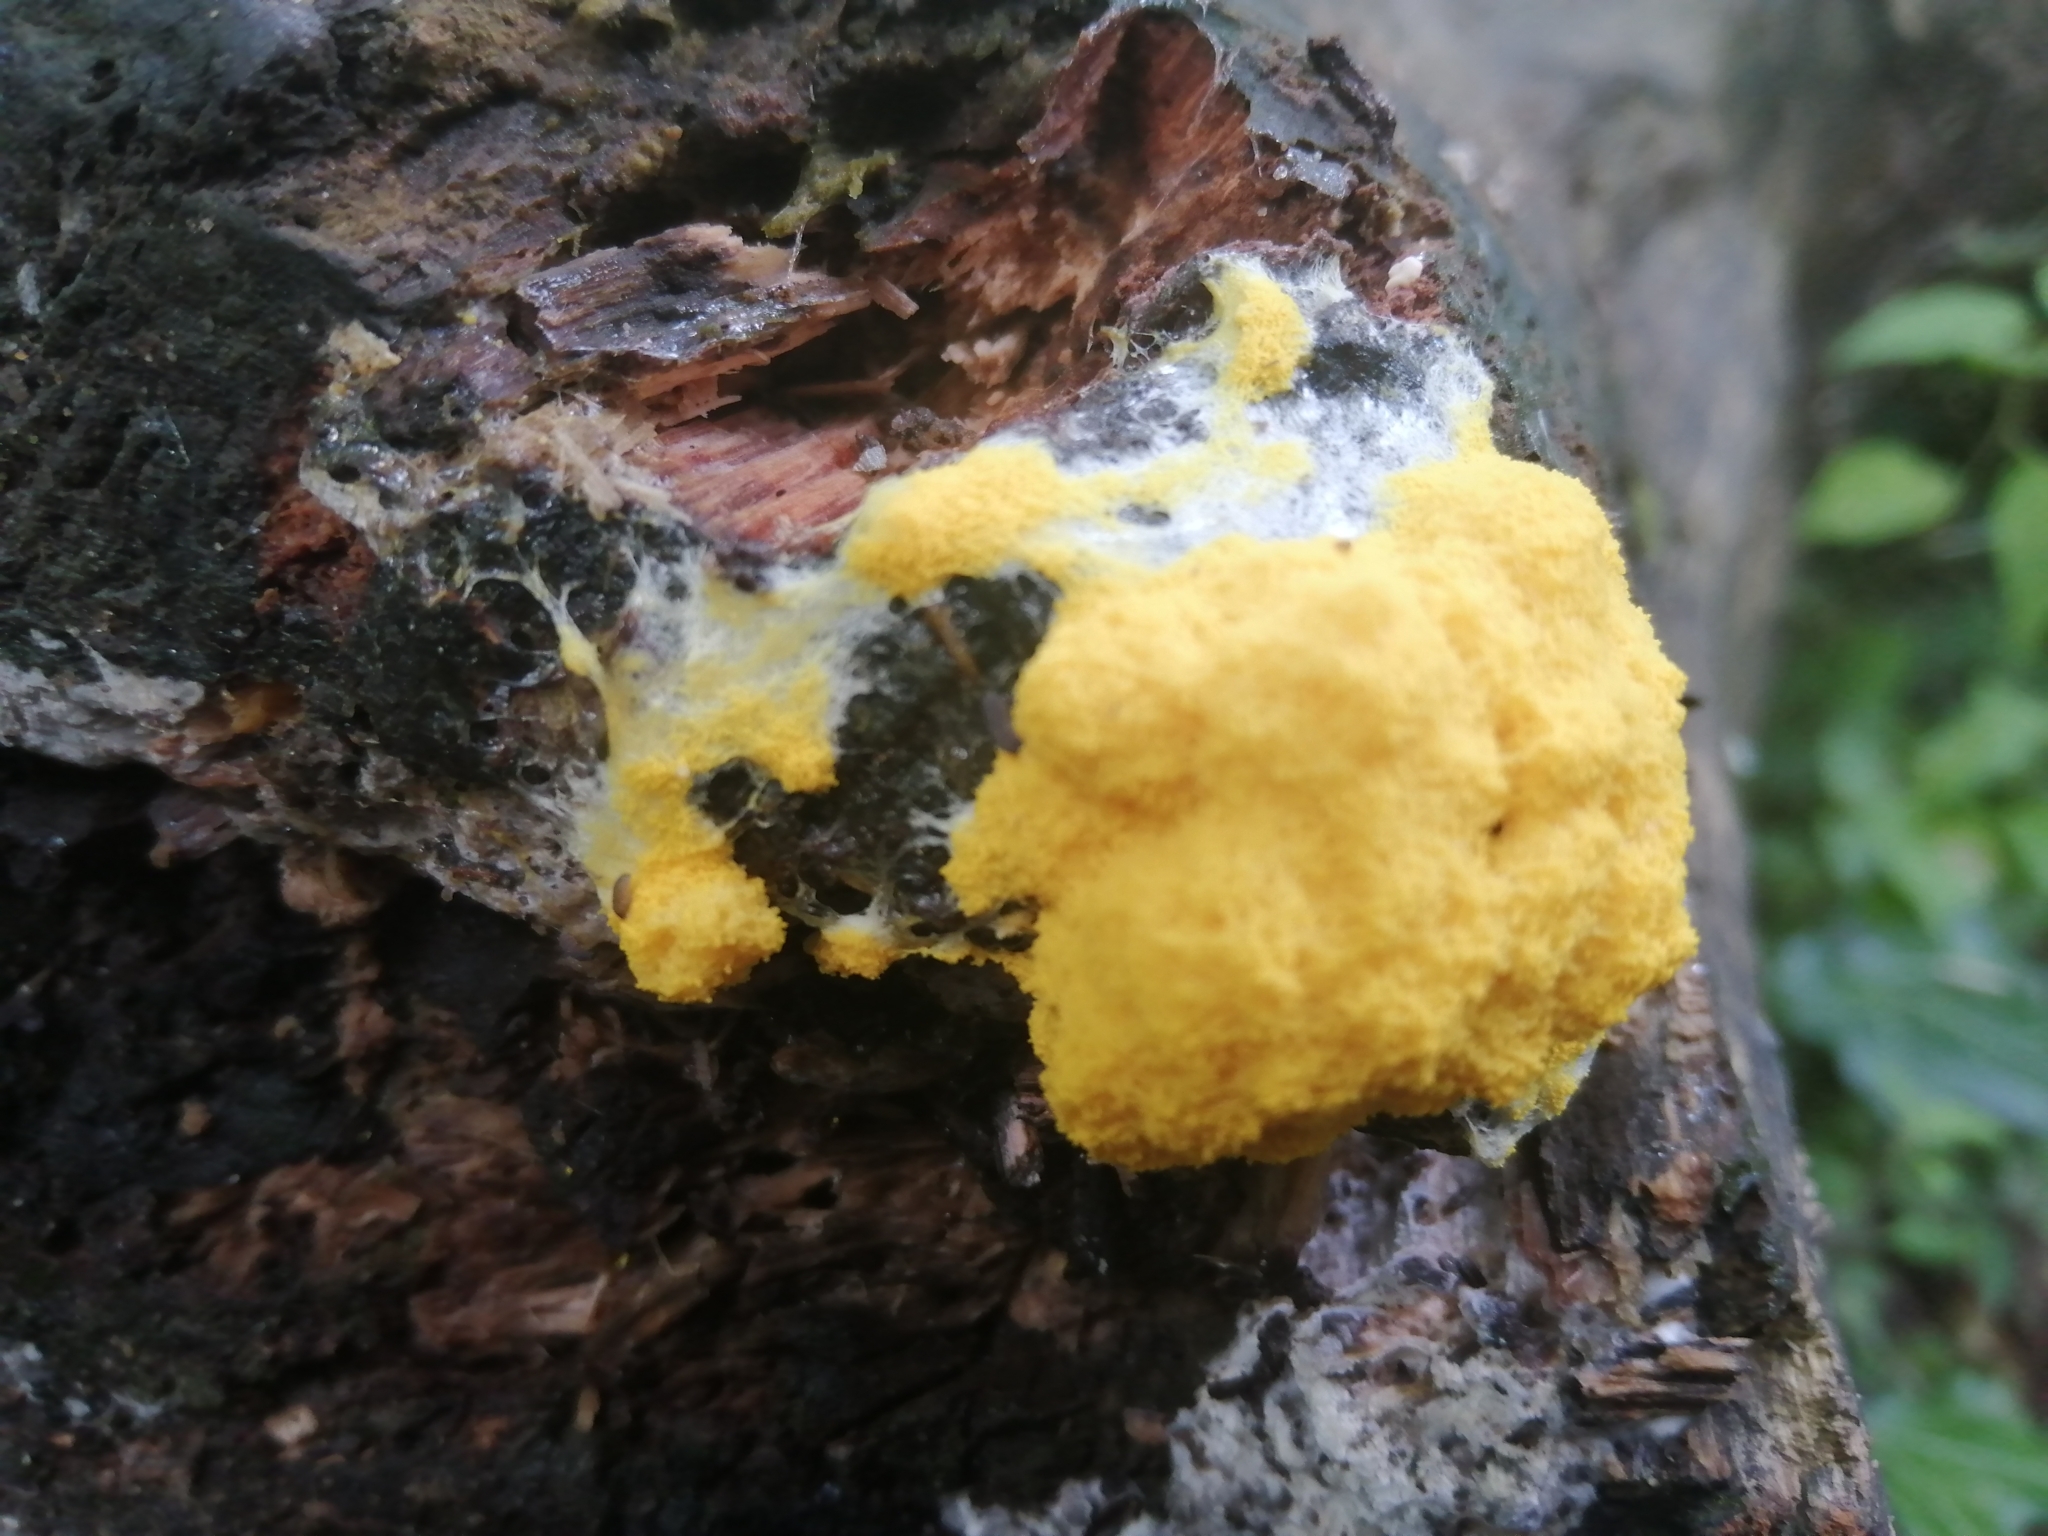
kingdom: Protozoa
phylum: Mycetozoa
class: Myxomycetes
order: Physarales
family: Physaraceae
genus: Fuligo
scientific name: Fuligo septica
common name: Dog vomit slime mold
